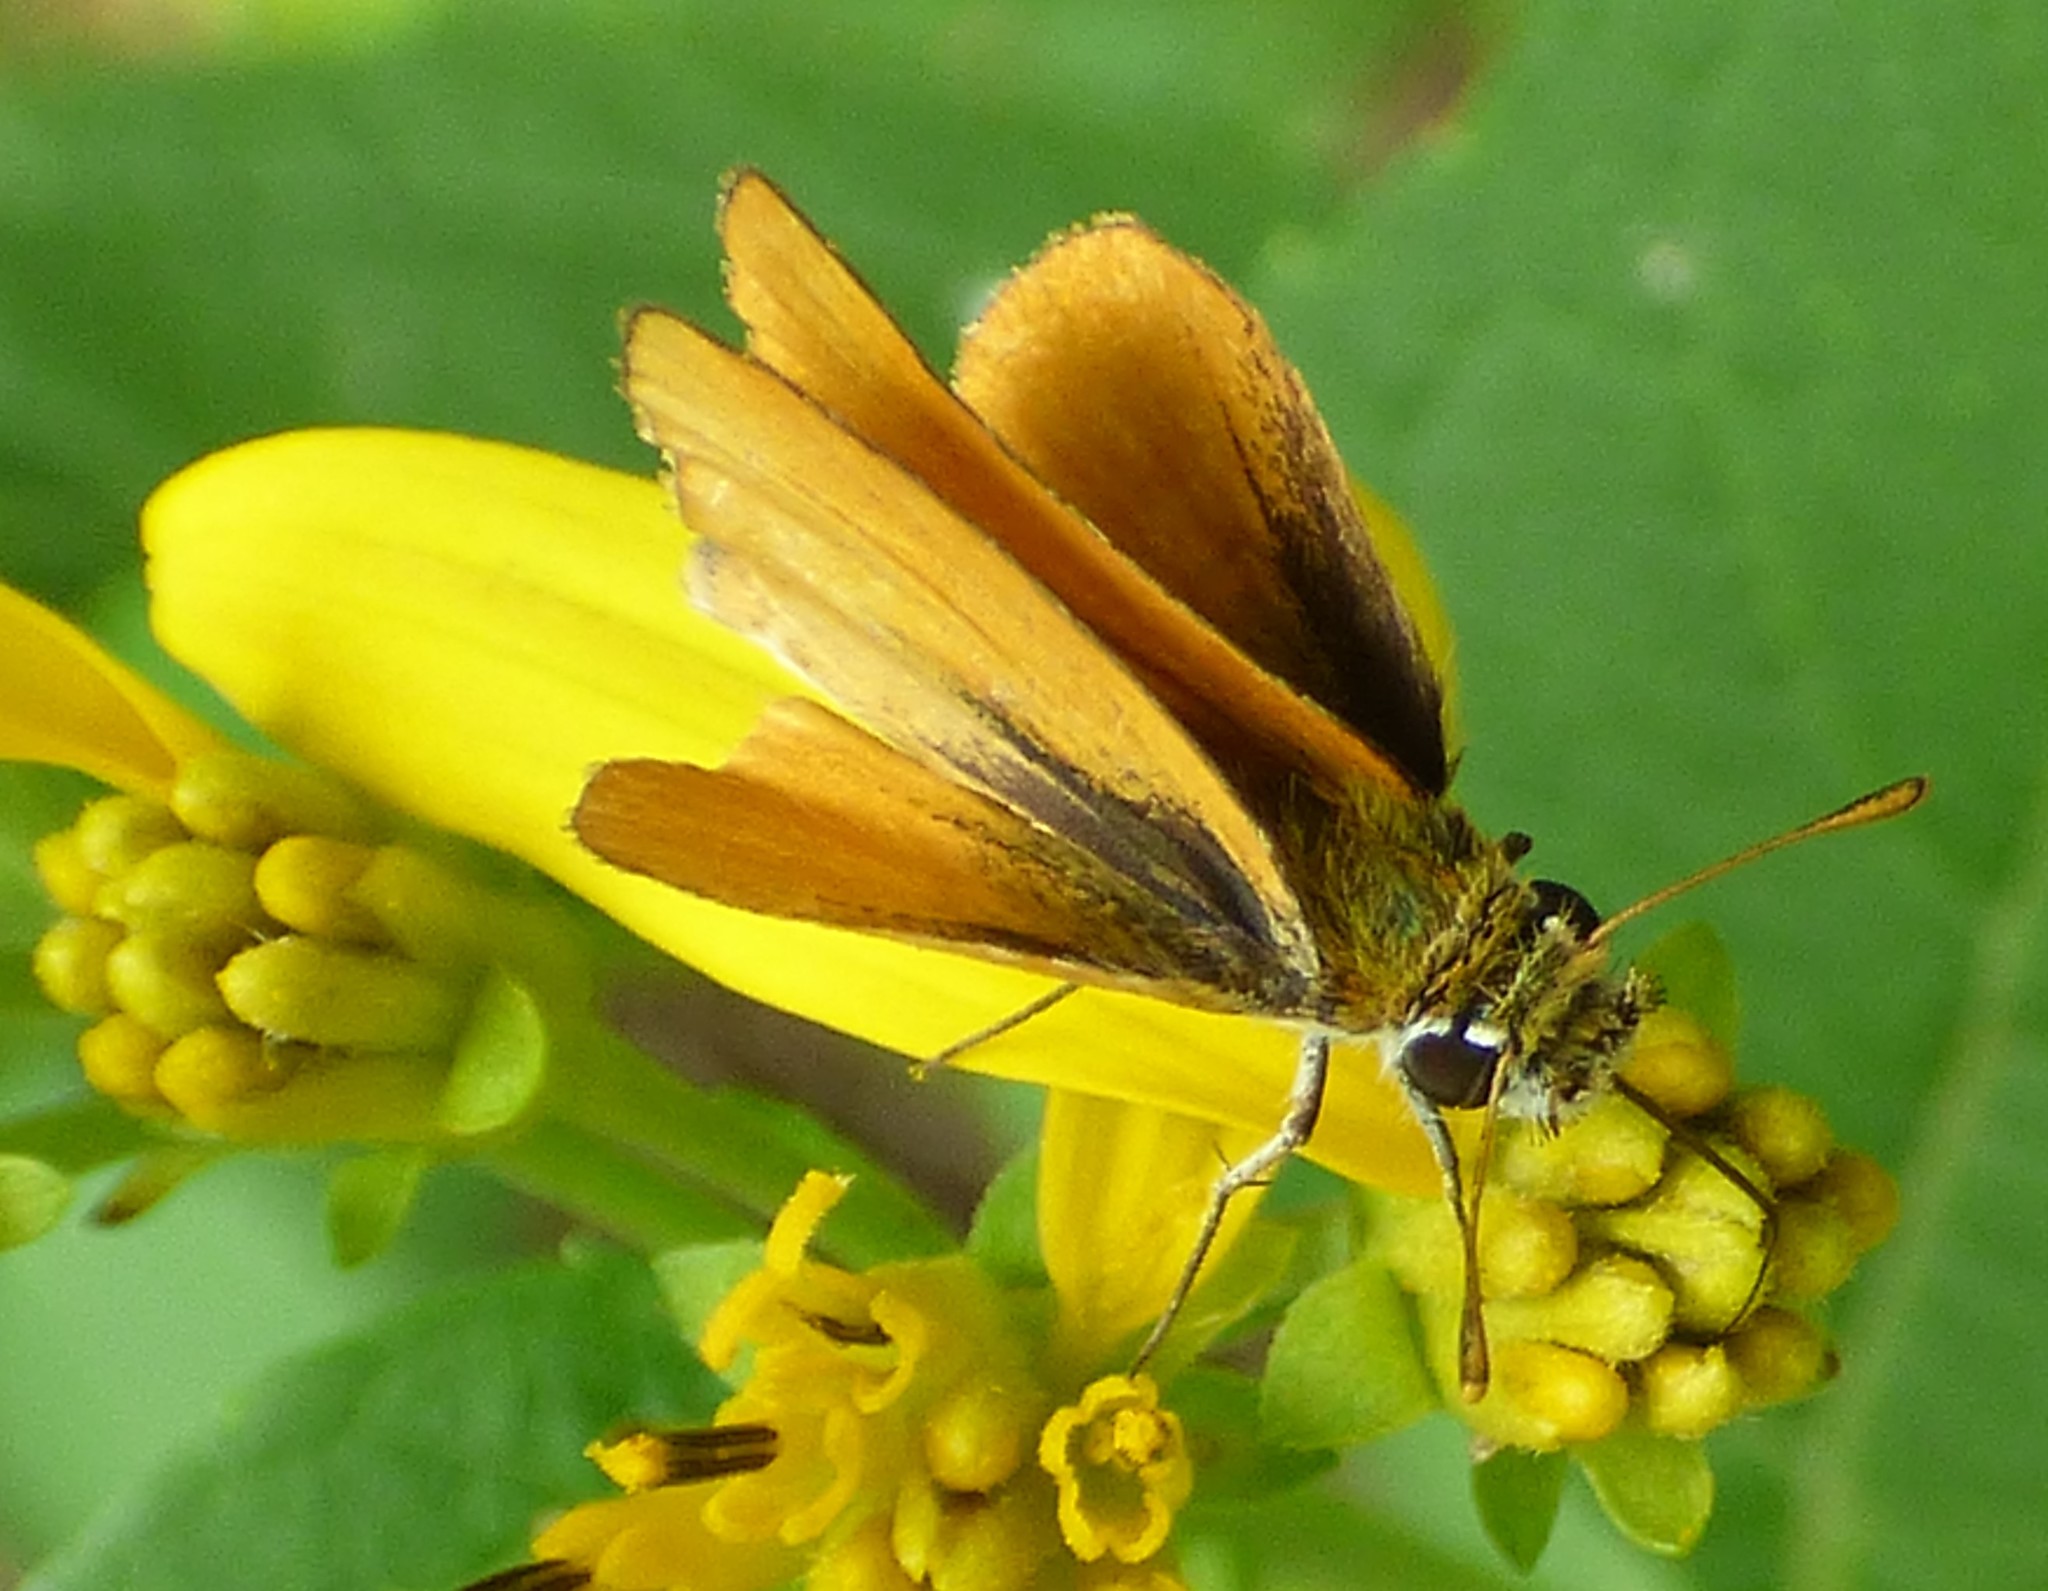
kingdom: Animalia
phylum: Arthropoda
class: Insecta
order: Lepidoptera
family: Hesperiidae
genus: Copaeodes
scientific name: Copaeodes minima
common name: Southern skipperling
